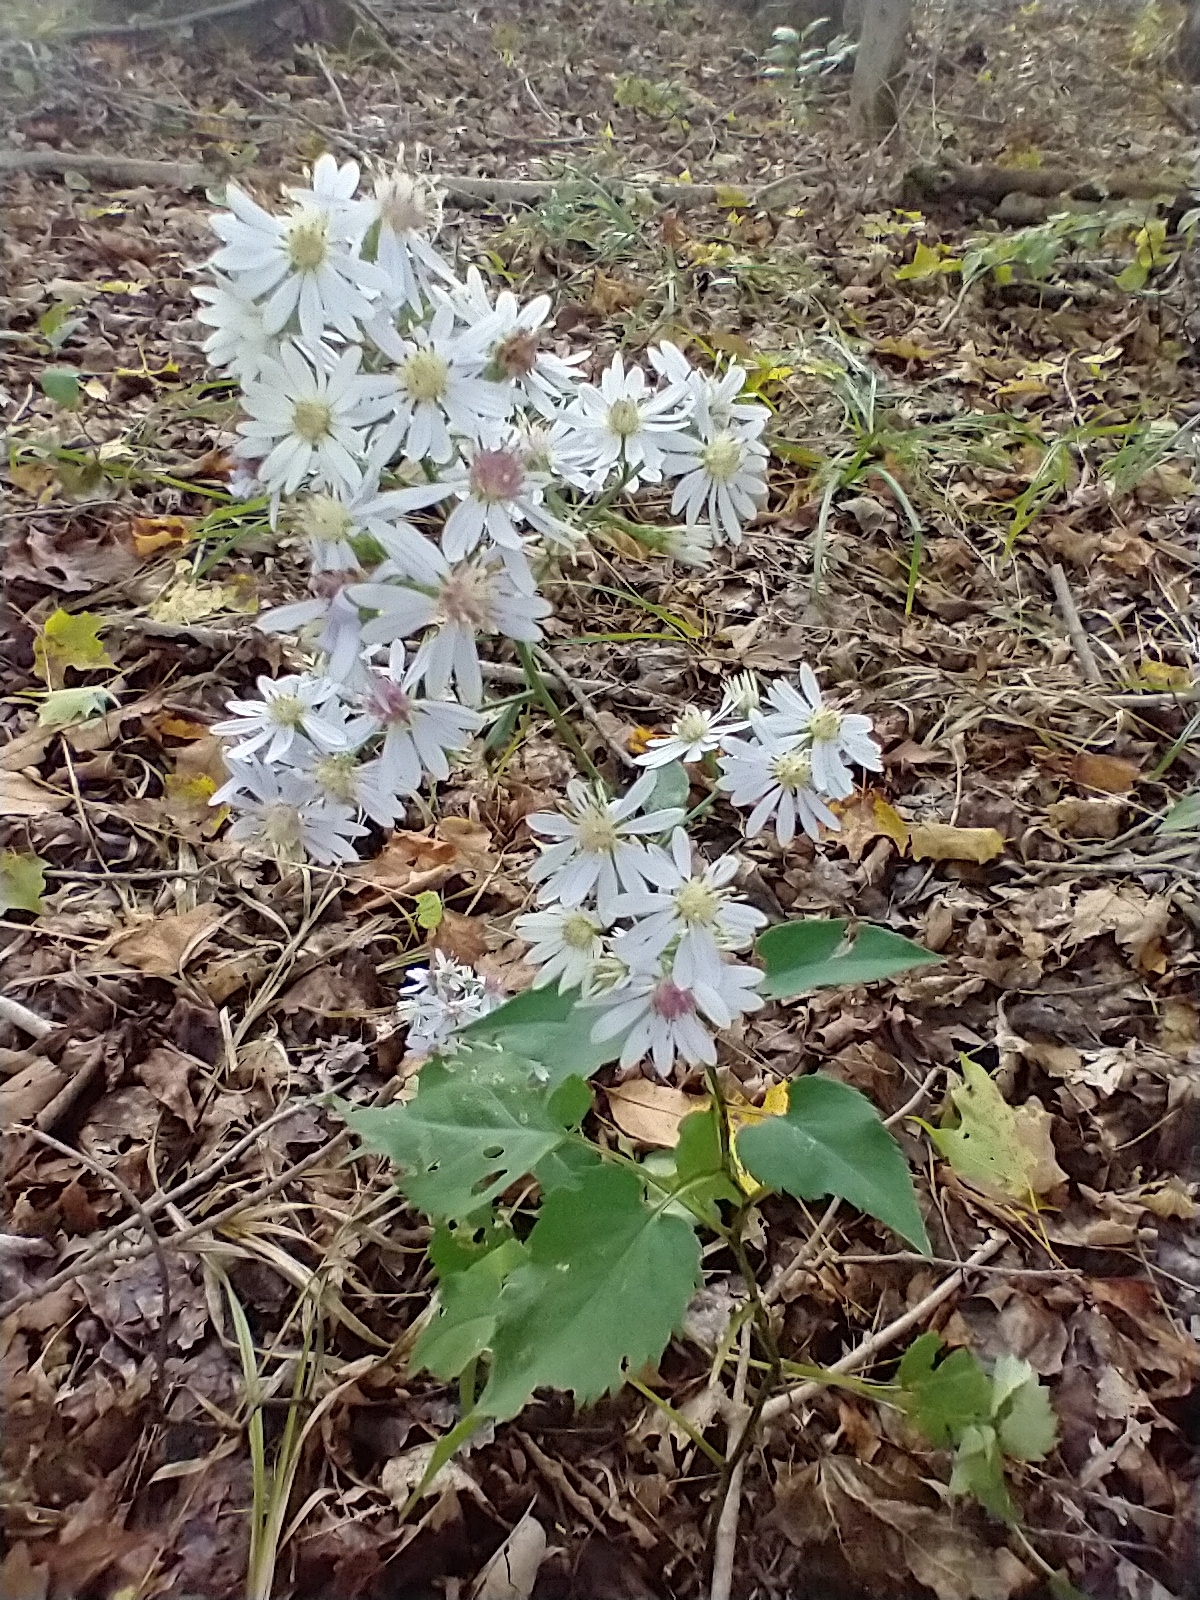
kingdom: Plantae
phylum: Tracheophyta
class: Magnoliopsida
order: Asterales
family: Asteraceae
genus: Symphyotrichum
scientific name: Symphyotrichum cordifolium
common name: Beeweed
